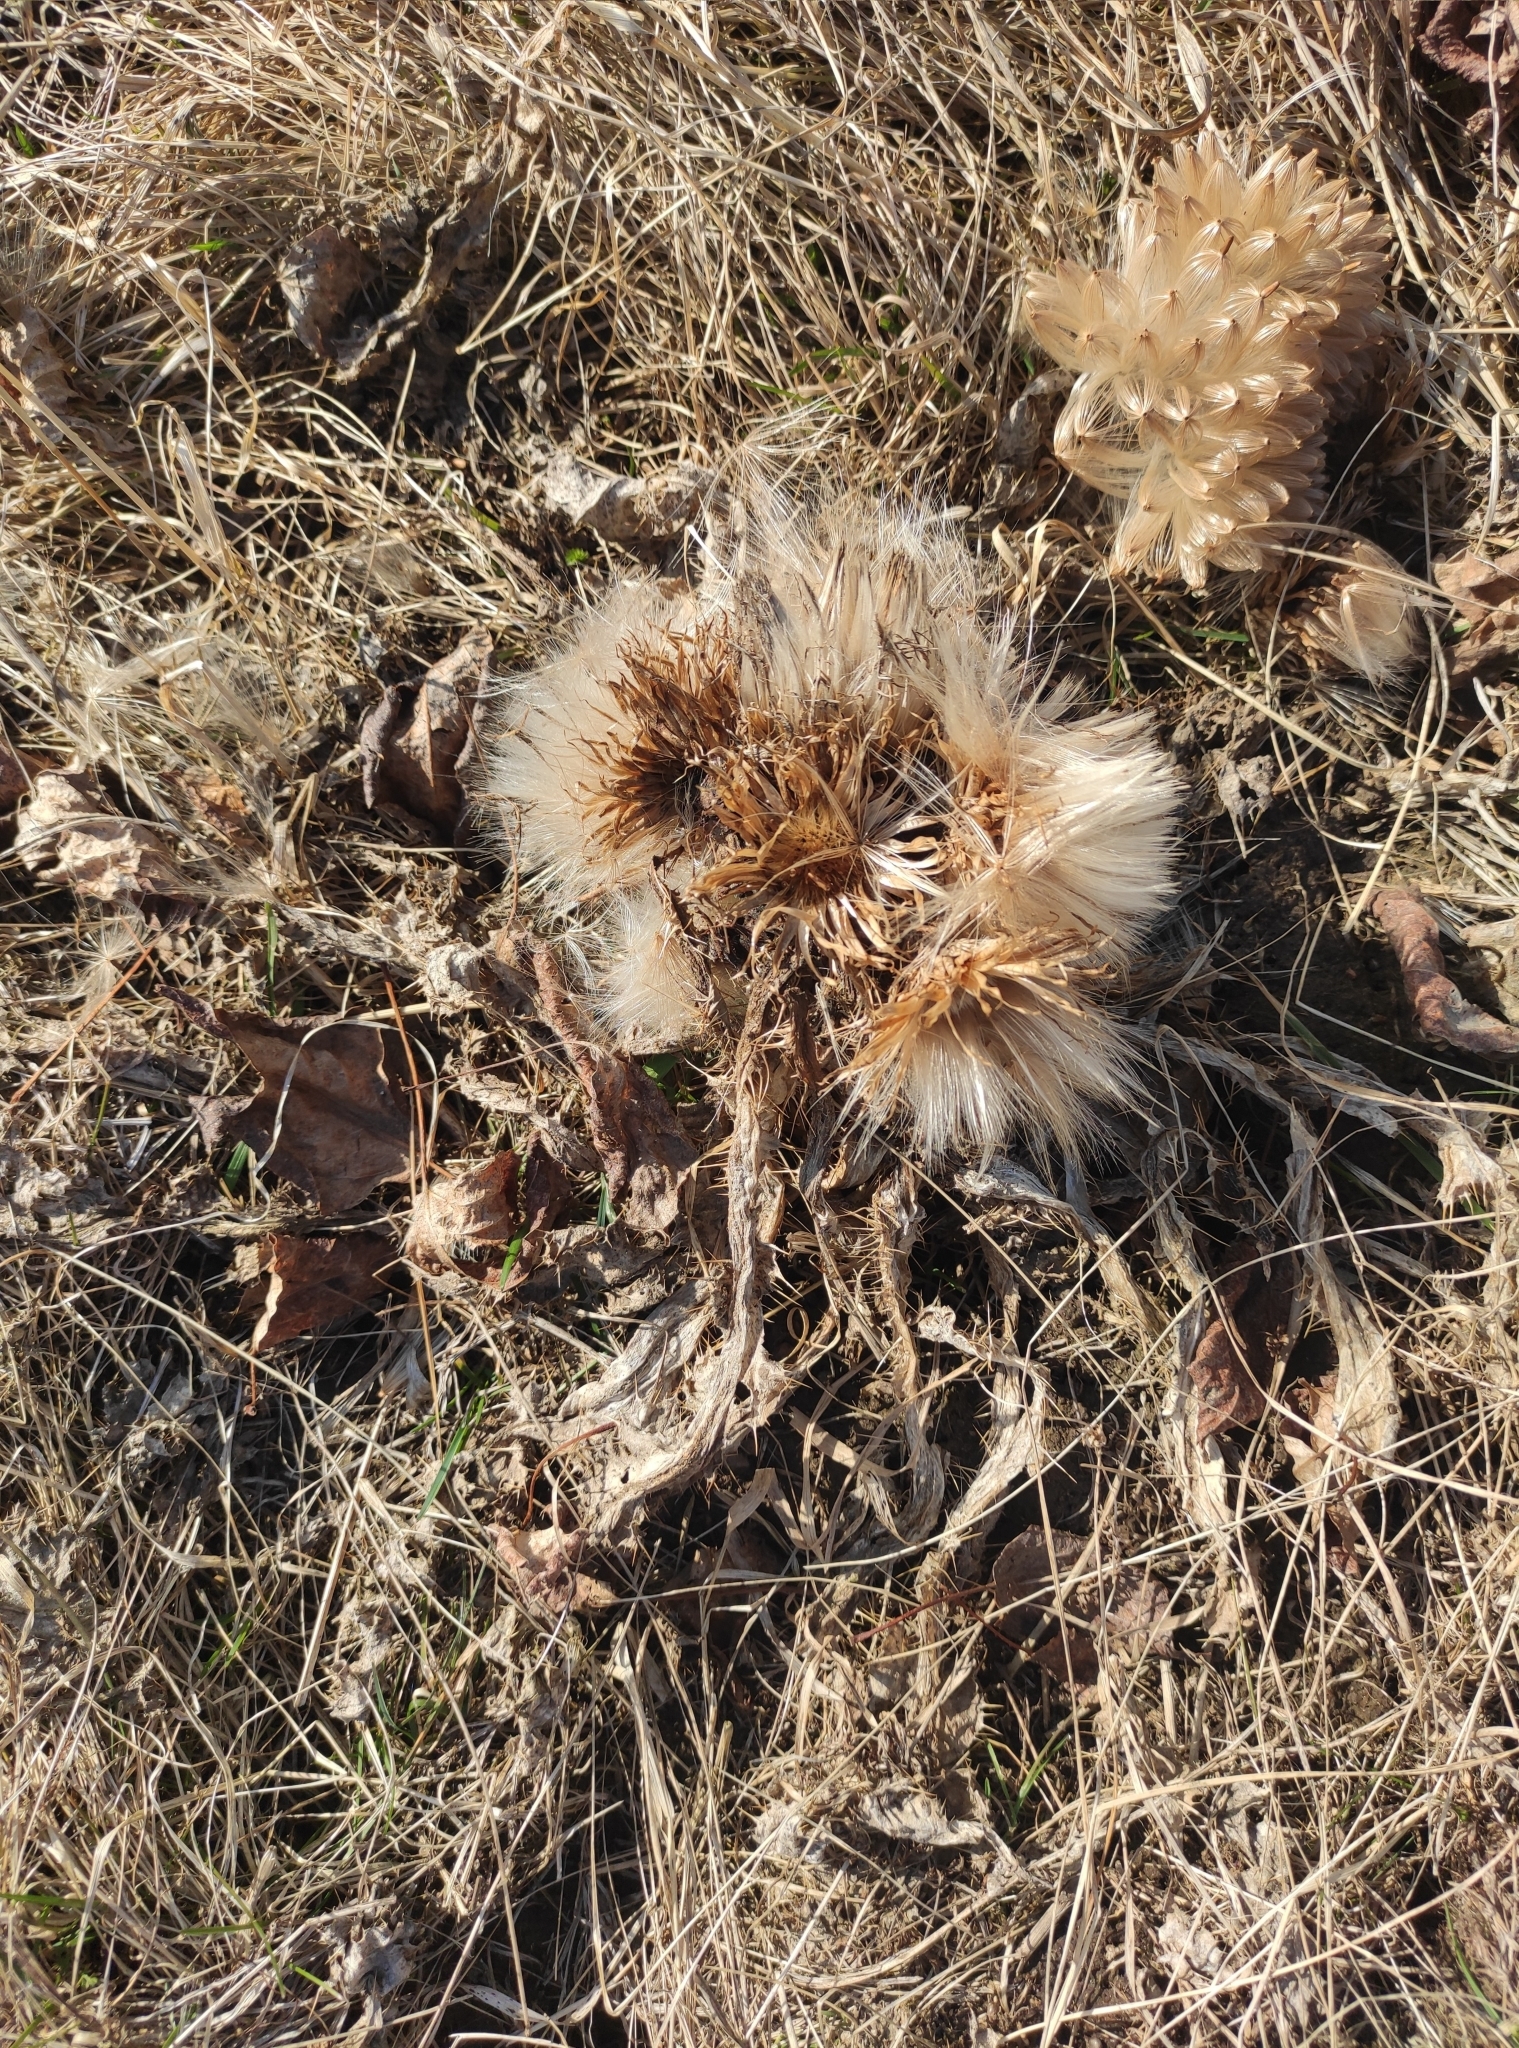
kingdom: Plantae
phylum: Tracheophyta
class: Magnoliopsida
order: Asterales
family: Asteraceae
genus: Cirsium
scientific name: Cirsium esculentum
